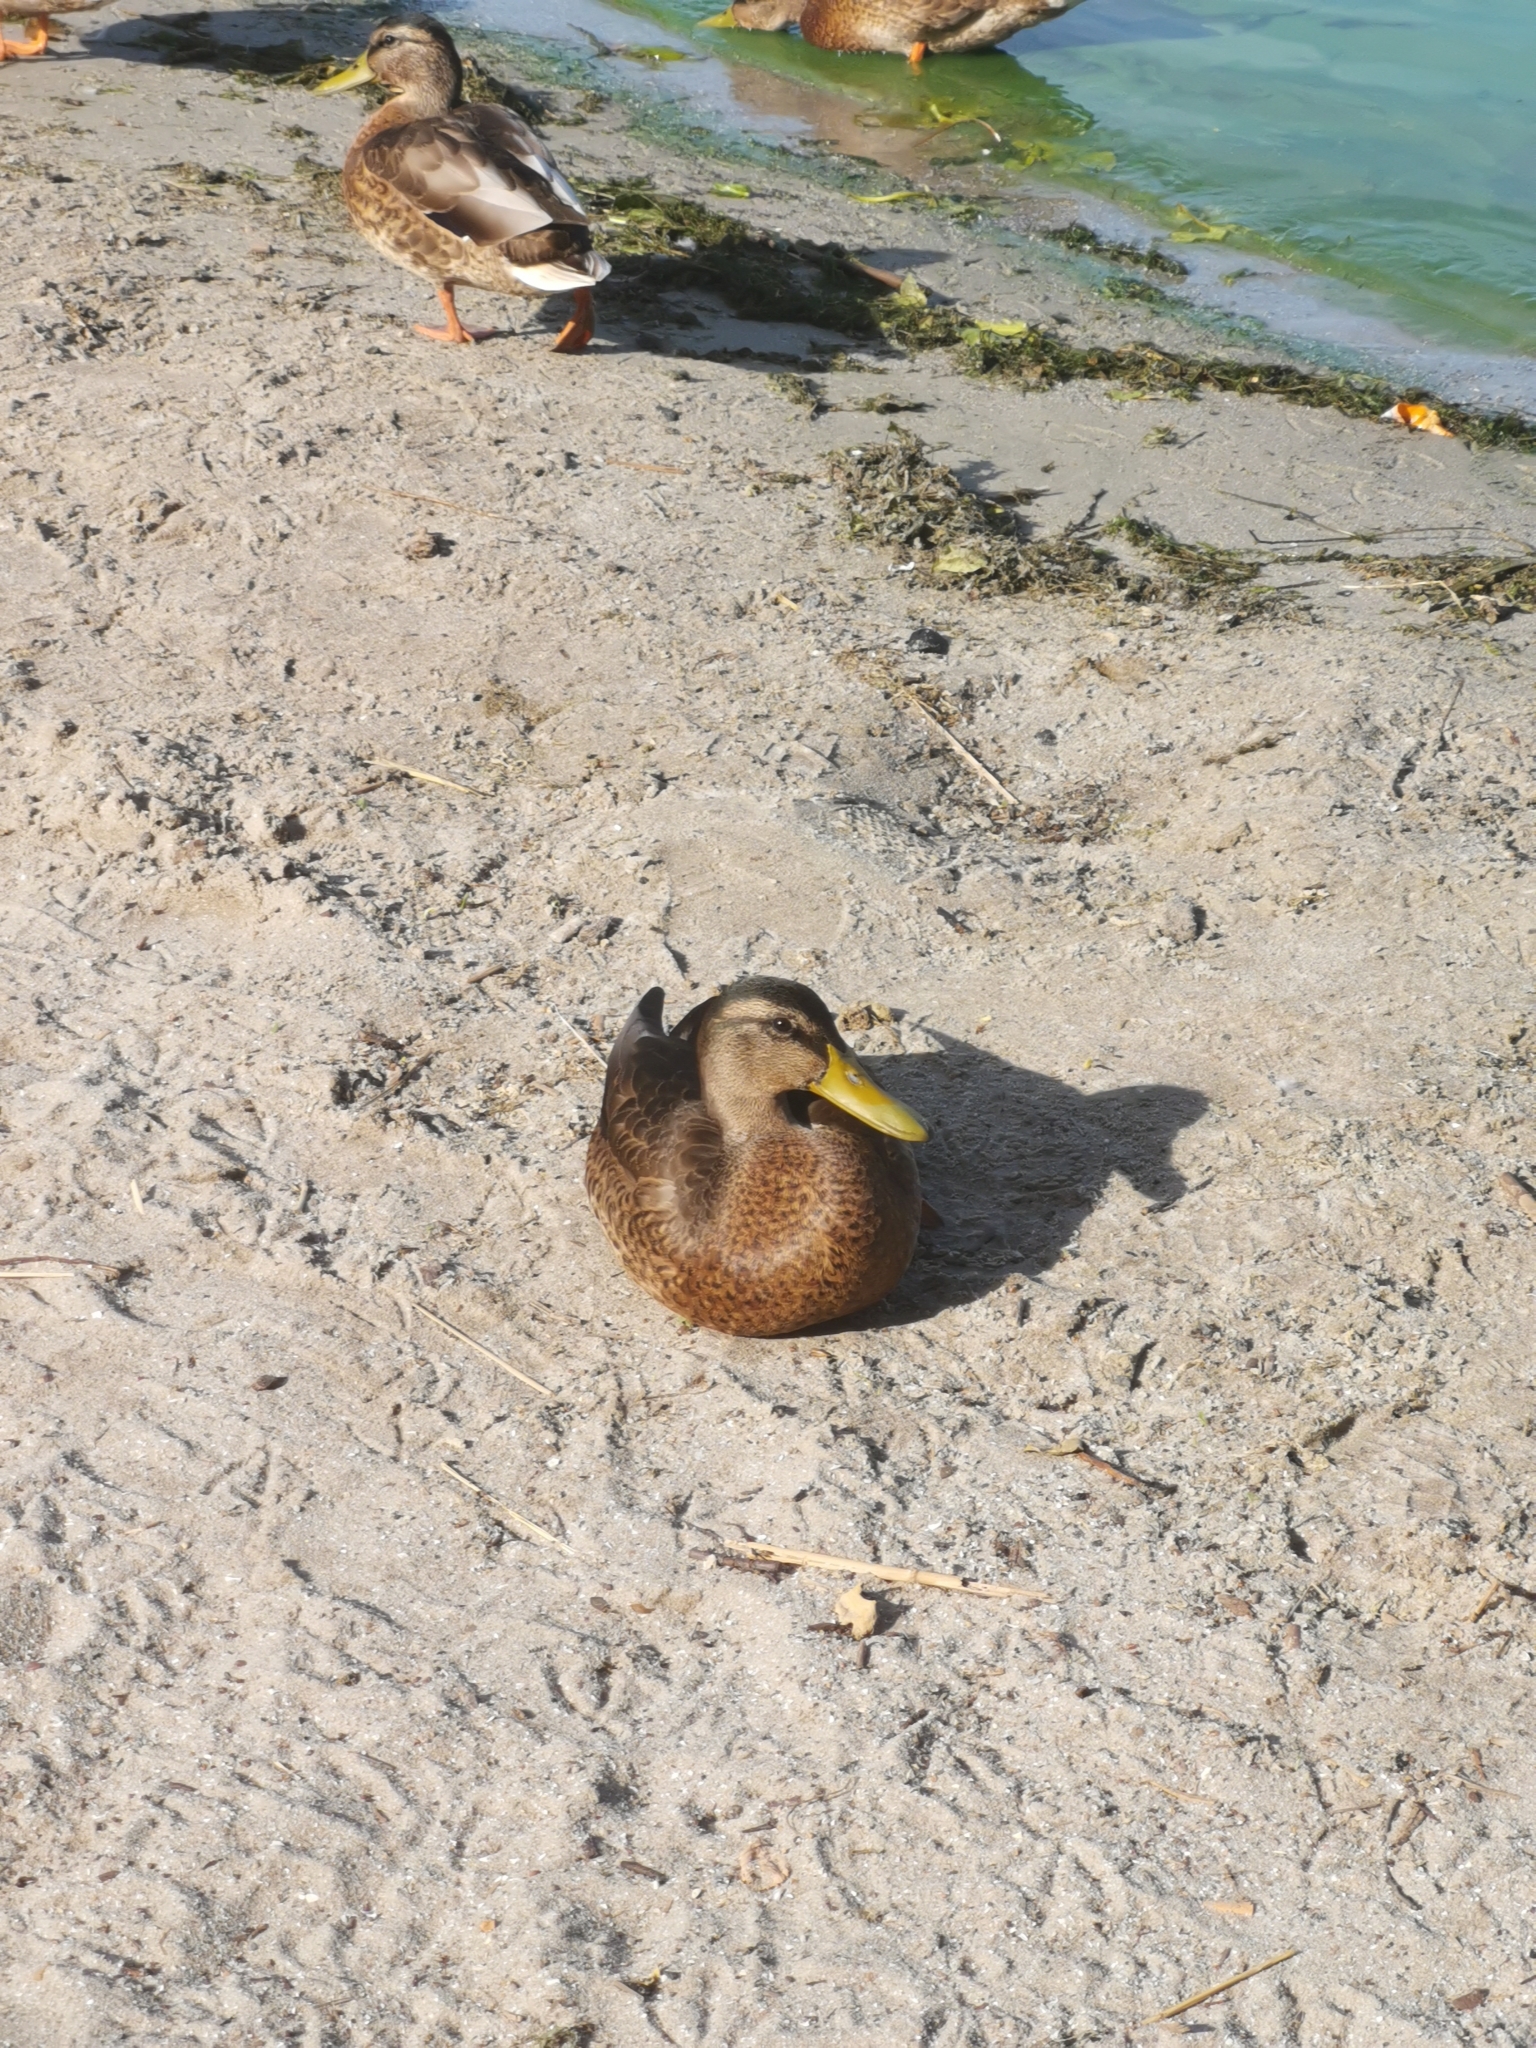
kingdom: Animalia
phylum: Chordata
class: Aves
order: Anseriformes
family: Anatidae
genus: Anas
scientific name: Anas platyrhynchos
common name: Mallard
